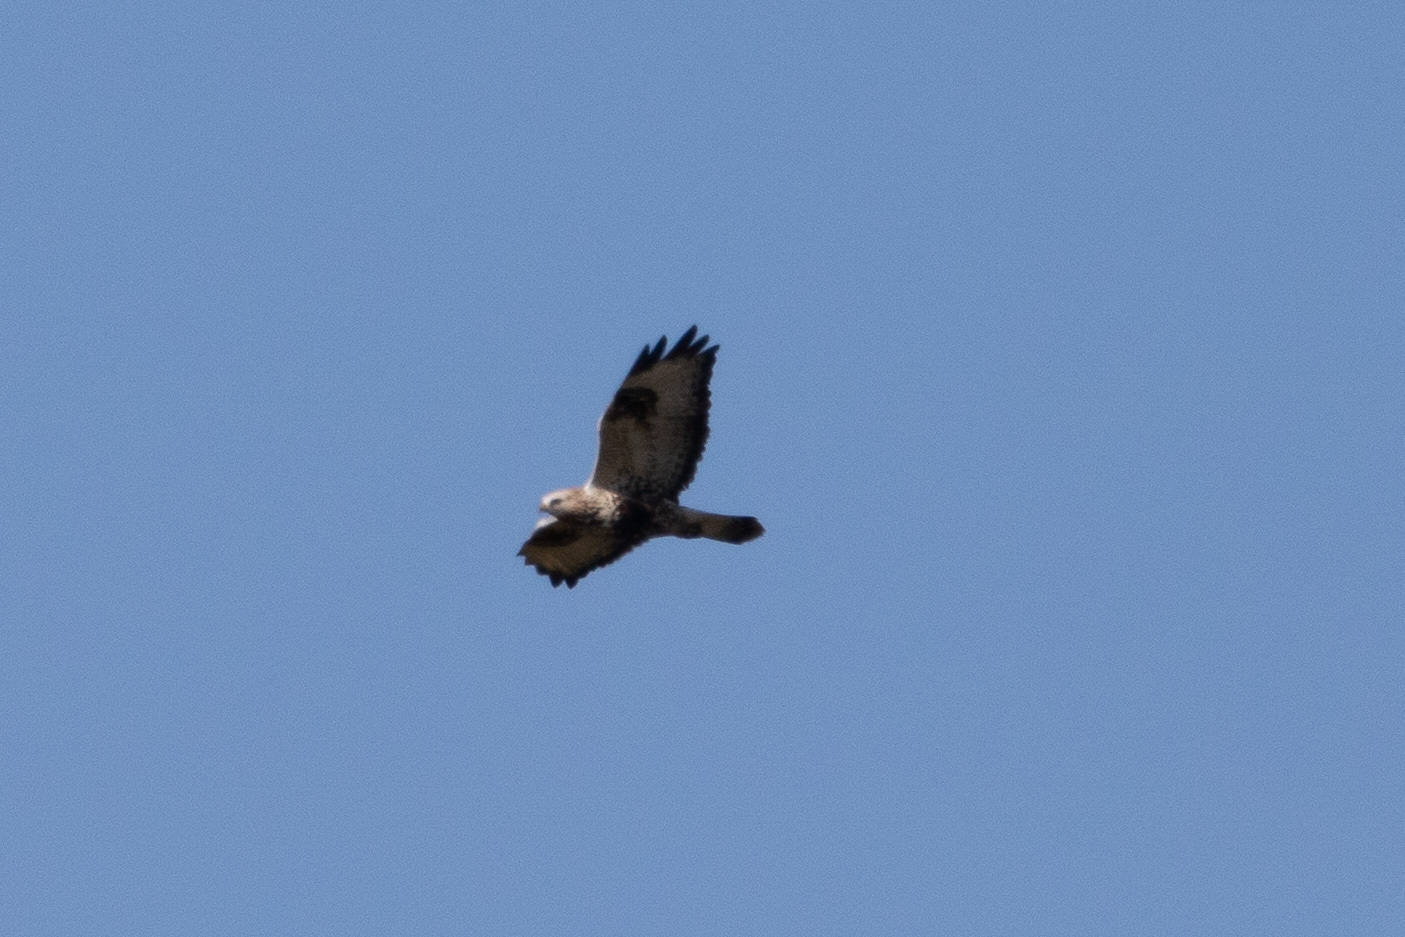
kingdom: Animalia
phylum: Chordata
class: Aves
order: Accipitriformes
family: Accipitridae
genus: Buteo
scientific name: Buteo lagopus
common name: Rough-legged buzzard
